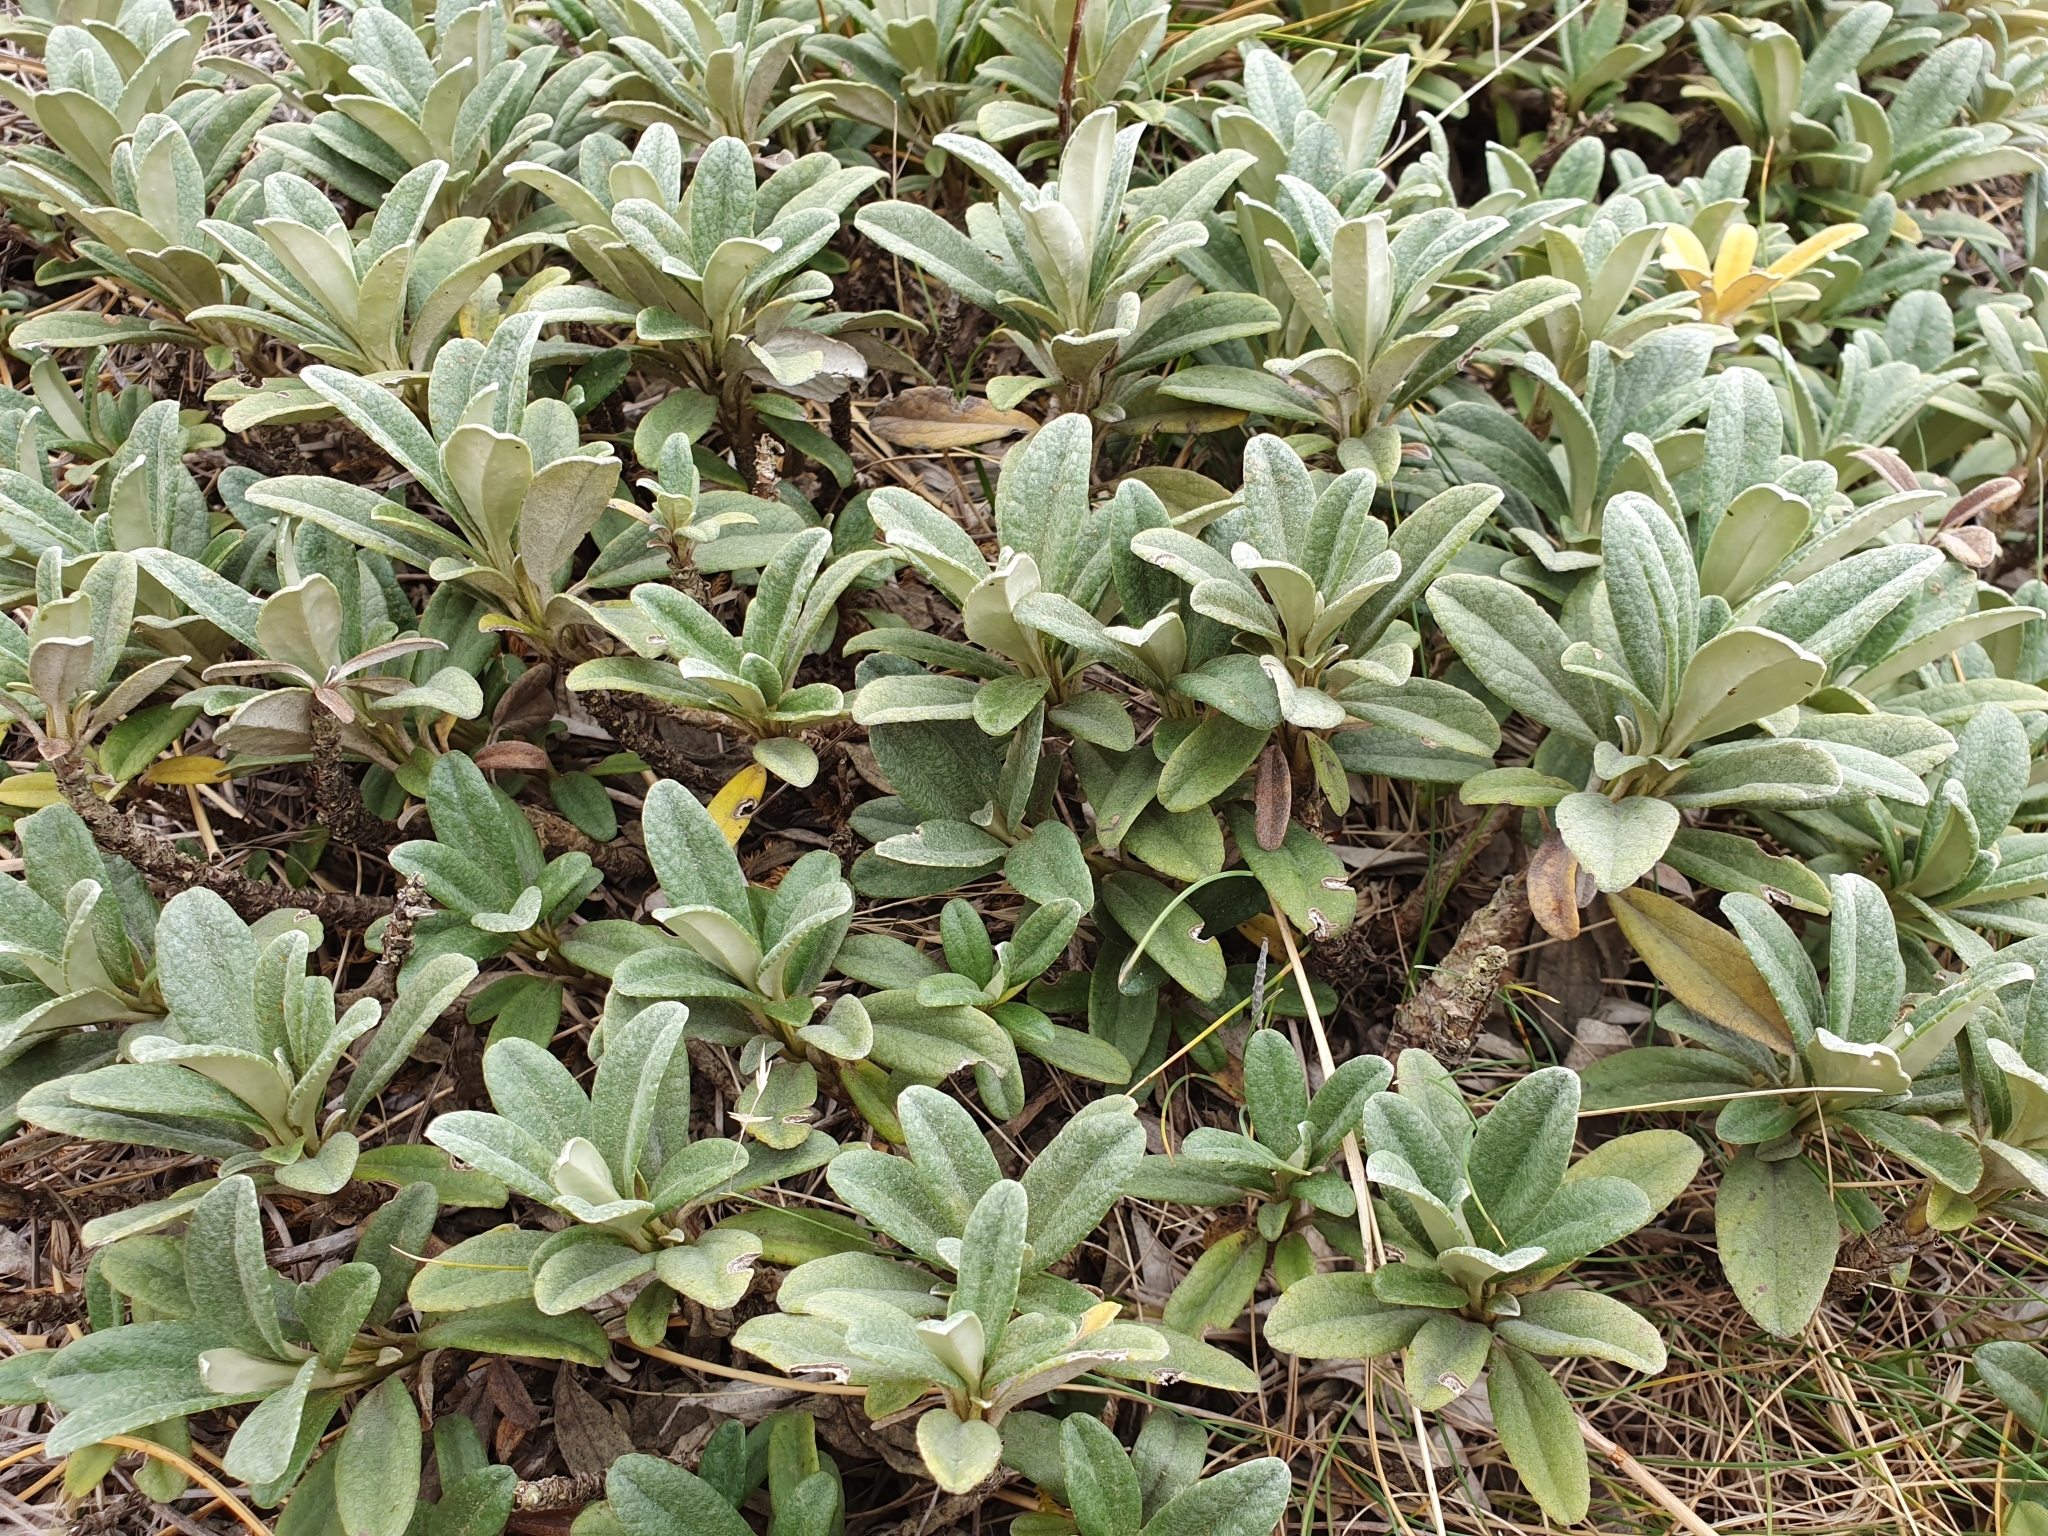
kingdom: Plantae
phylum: Tracheophyta
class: Magnoliopsida
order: Asterales
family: Asteraceae
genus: Brachyglottis
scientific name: Brachyglottis revoluta
